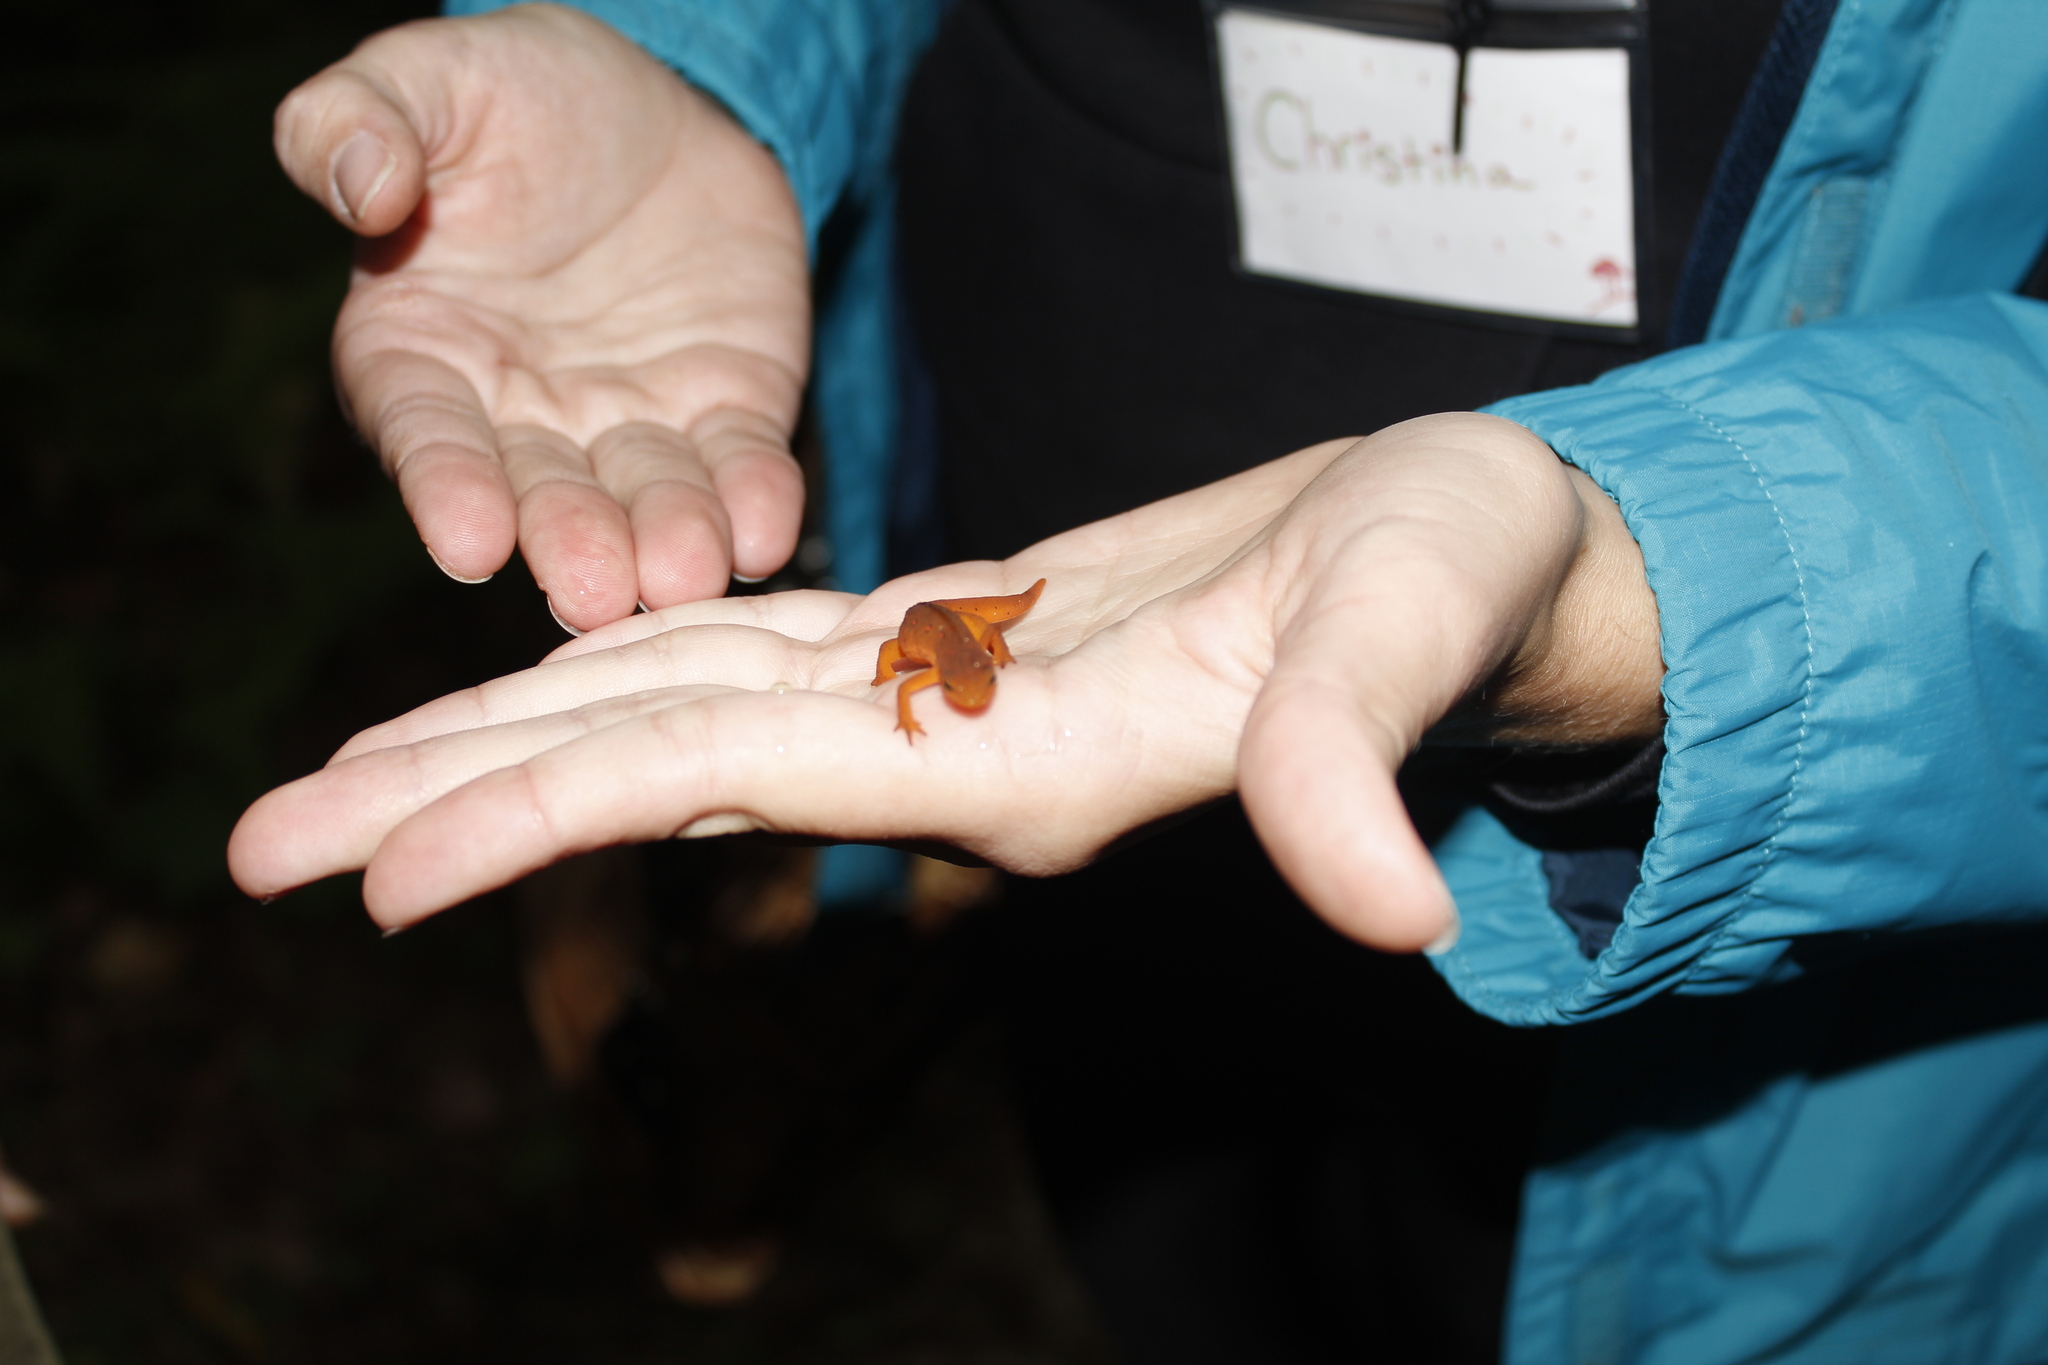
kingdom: Animalia
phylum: Chordata
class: Amphibia
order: Caudata
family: Salamandridae
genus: Notophthalmus
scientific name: Notophthalmus viridescens
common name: Eastern newt
